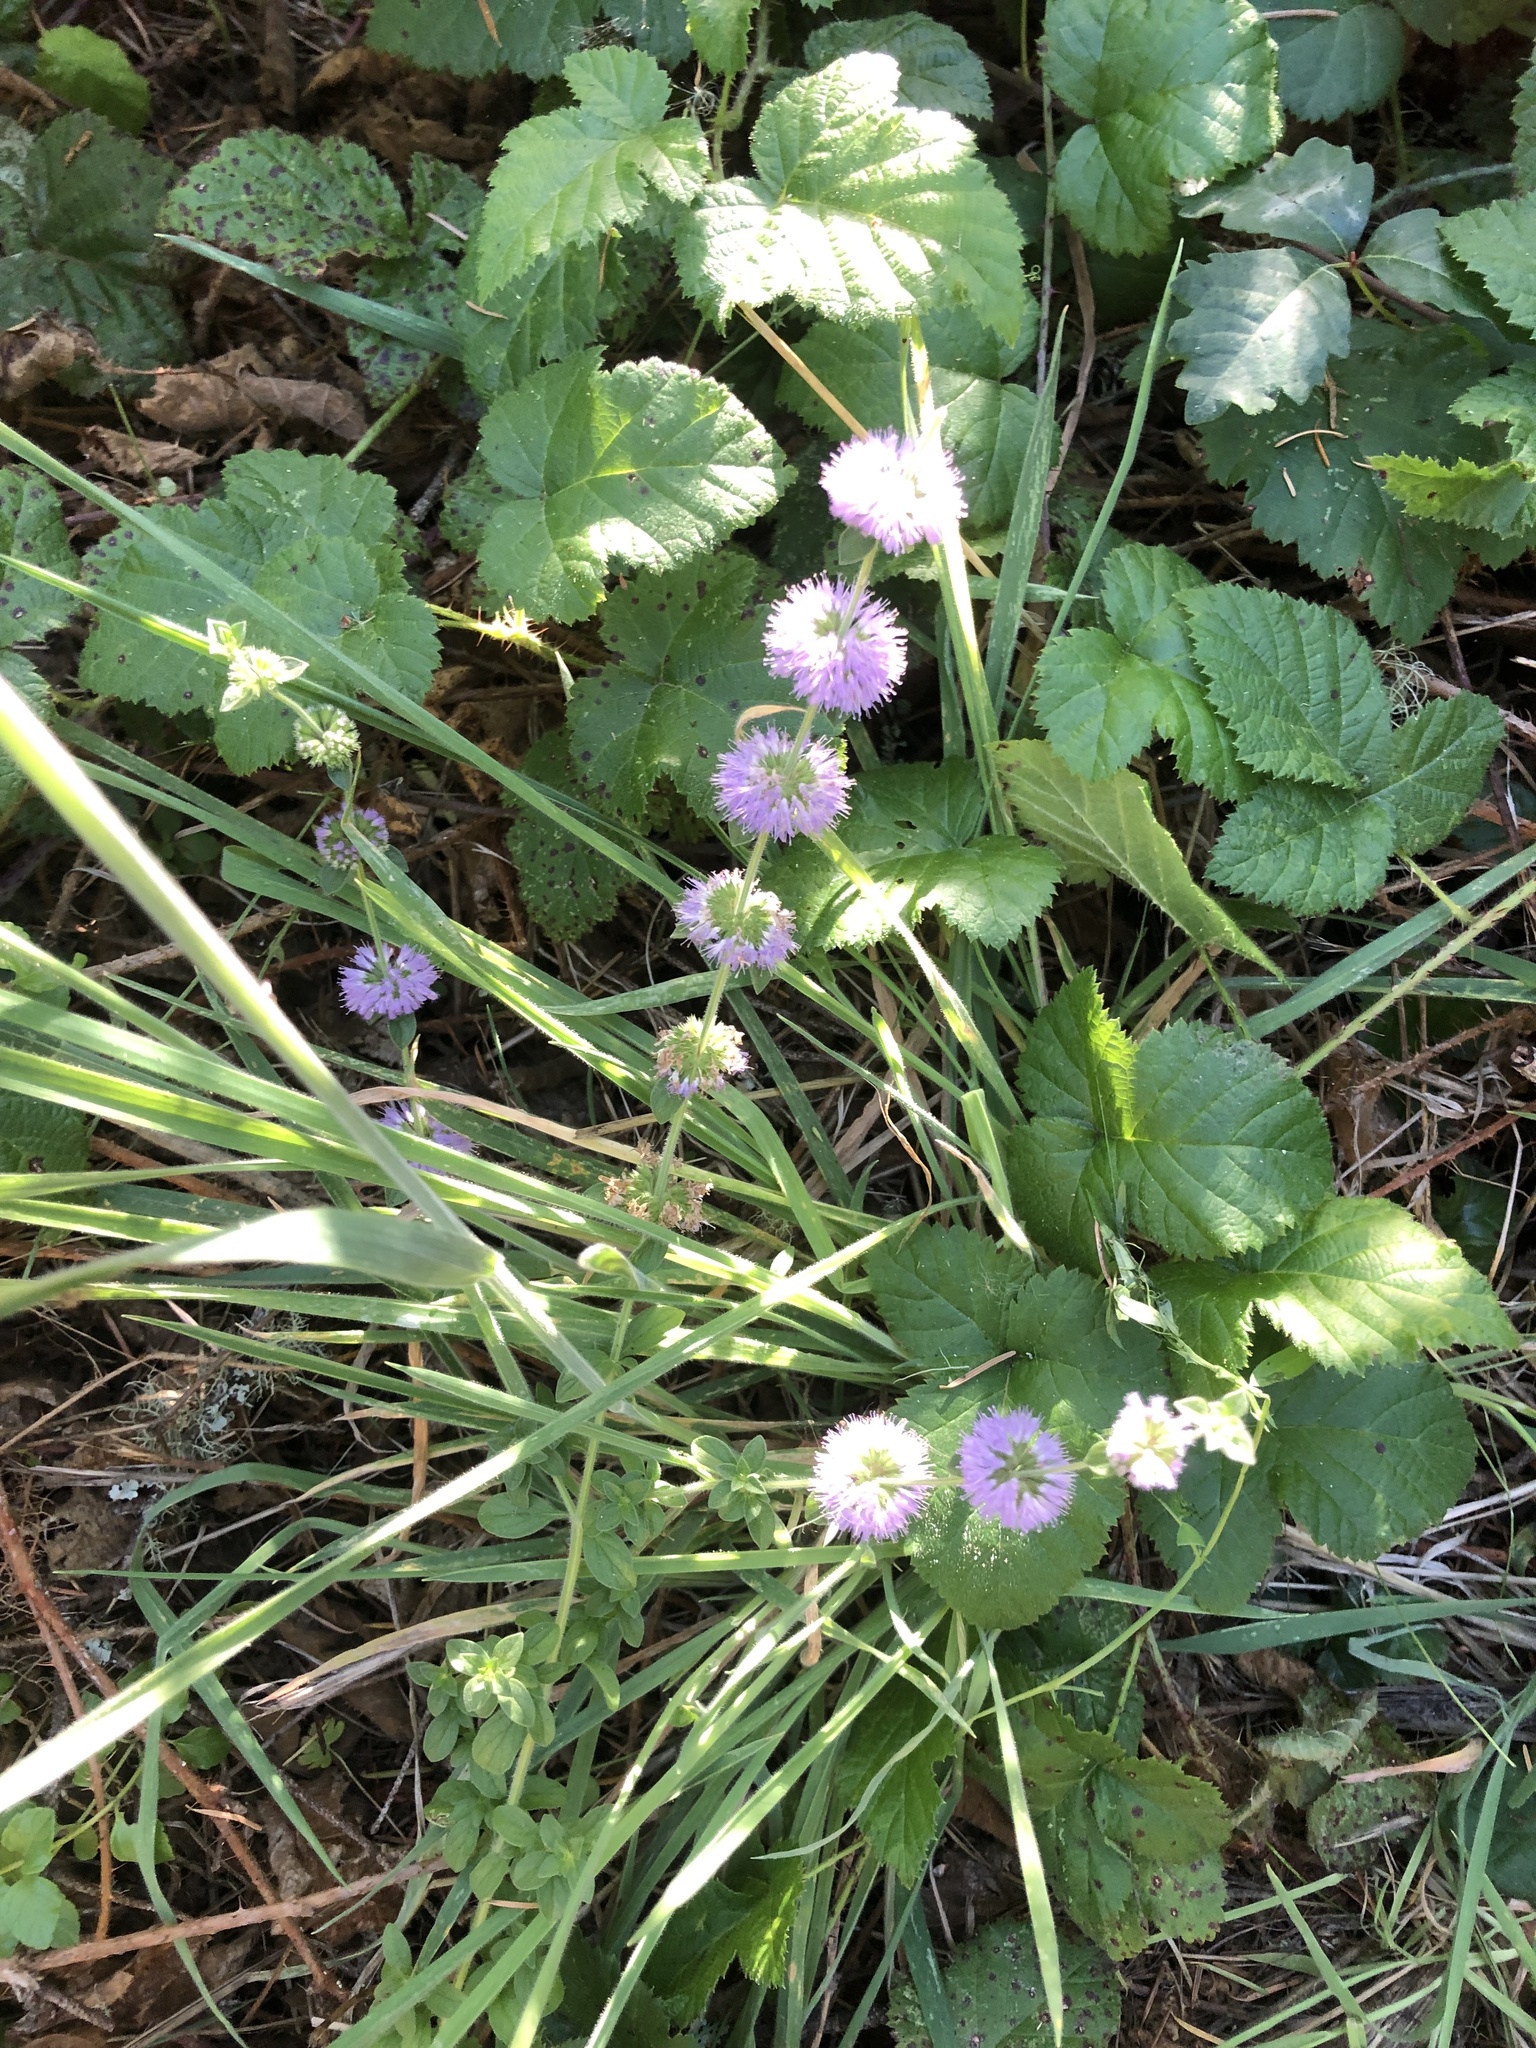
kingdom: Plantae
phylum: Tracheophyta
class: Magnoliopsida
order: Lamiales
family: Lamiaceae
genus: Mentha
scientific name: Mentha pulegium
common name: Pennyroyal
